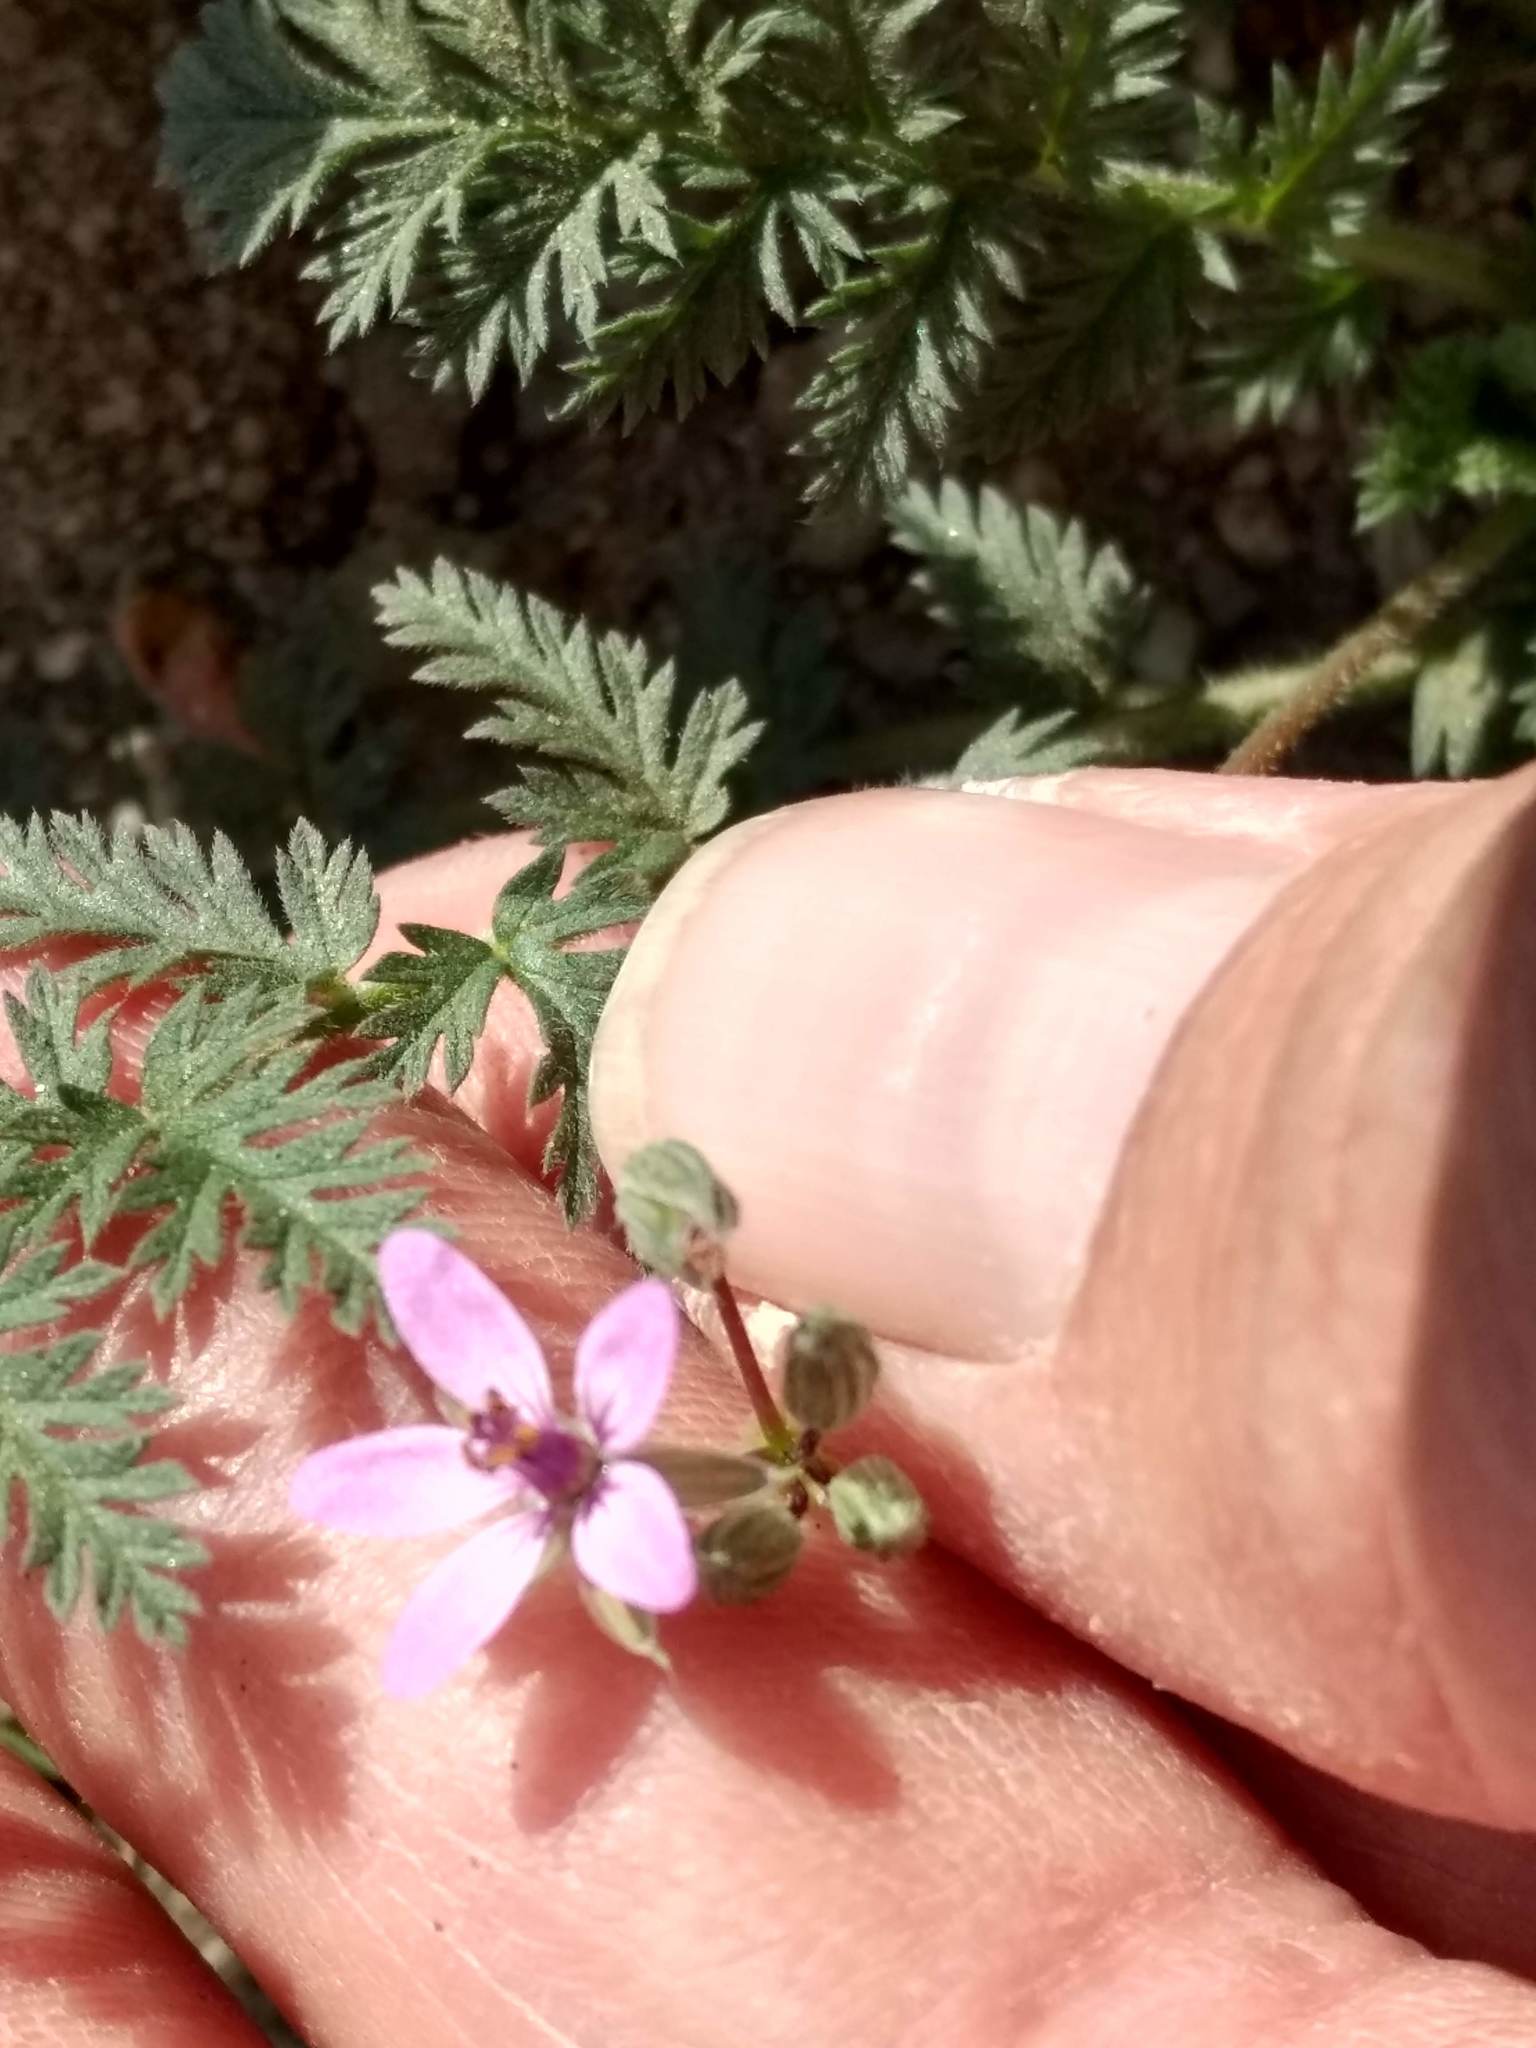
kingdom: Plantae
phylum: Tracheophyta
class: Magnoliopsida
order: Geraniales
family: Geraniaceae
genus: Erodium
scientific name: Erodium cicutarium
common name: Common stork's-bill
